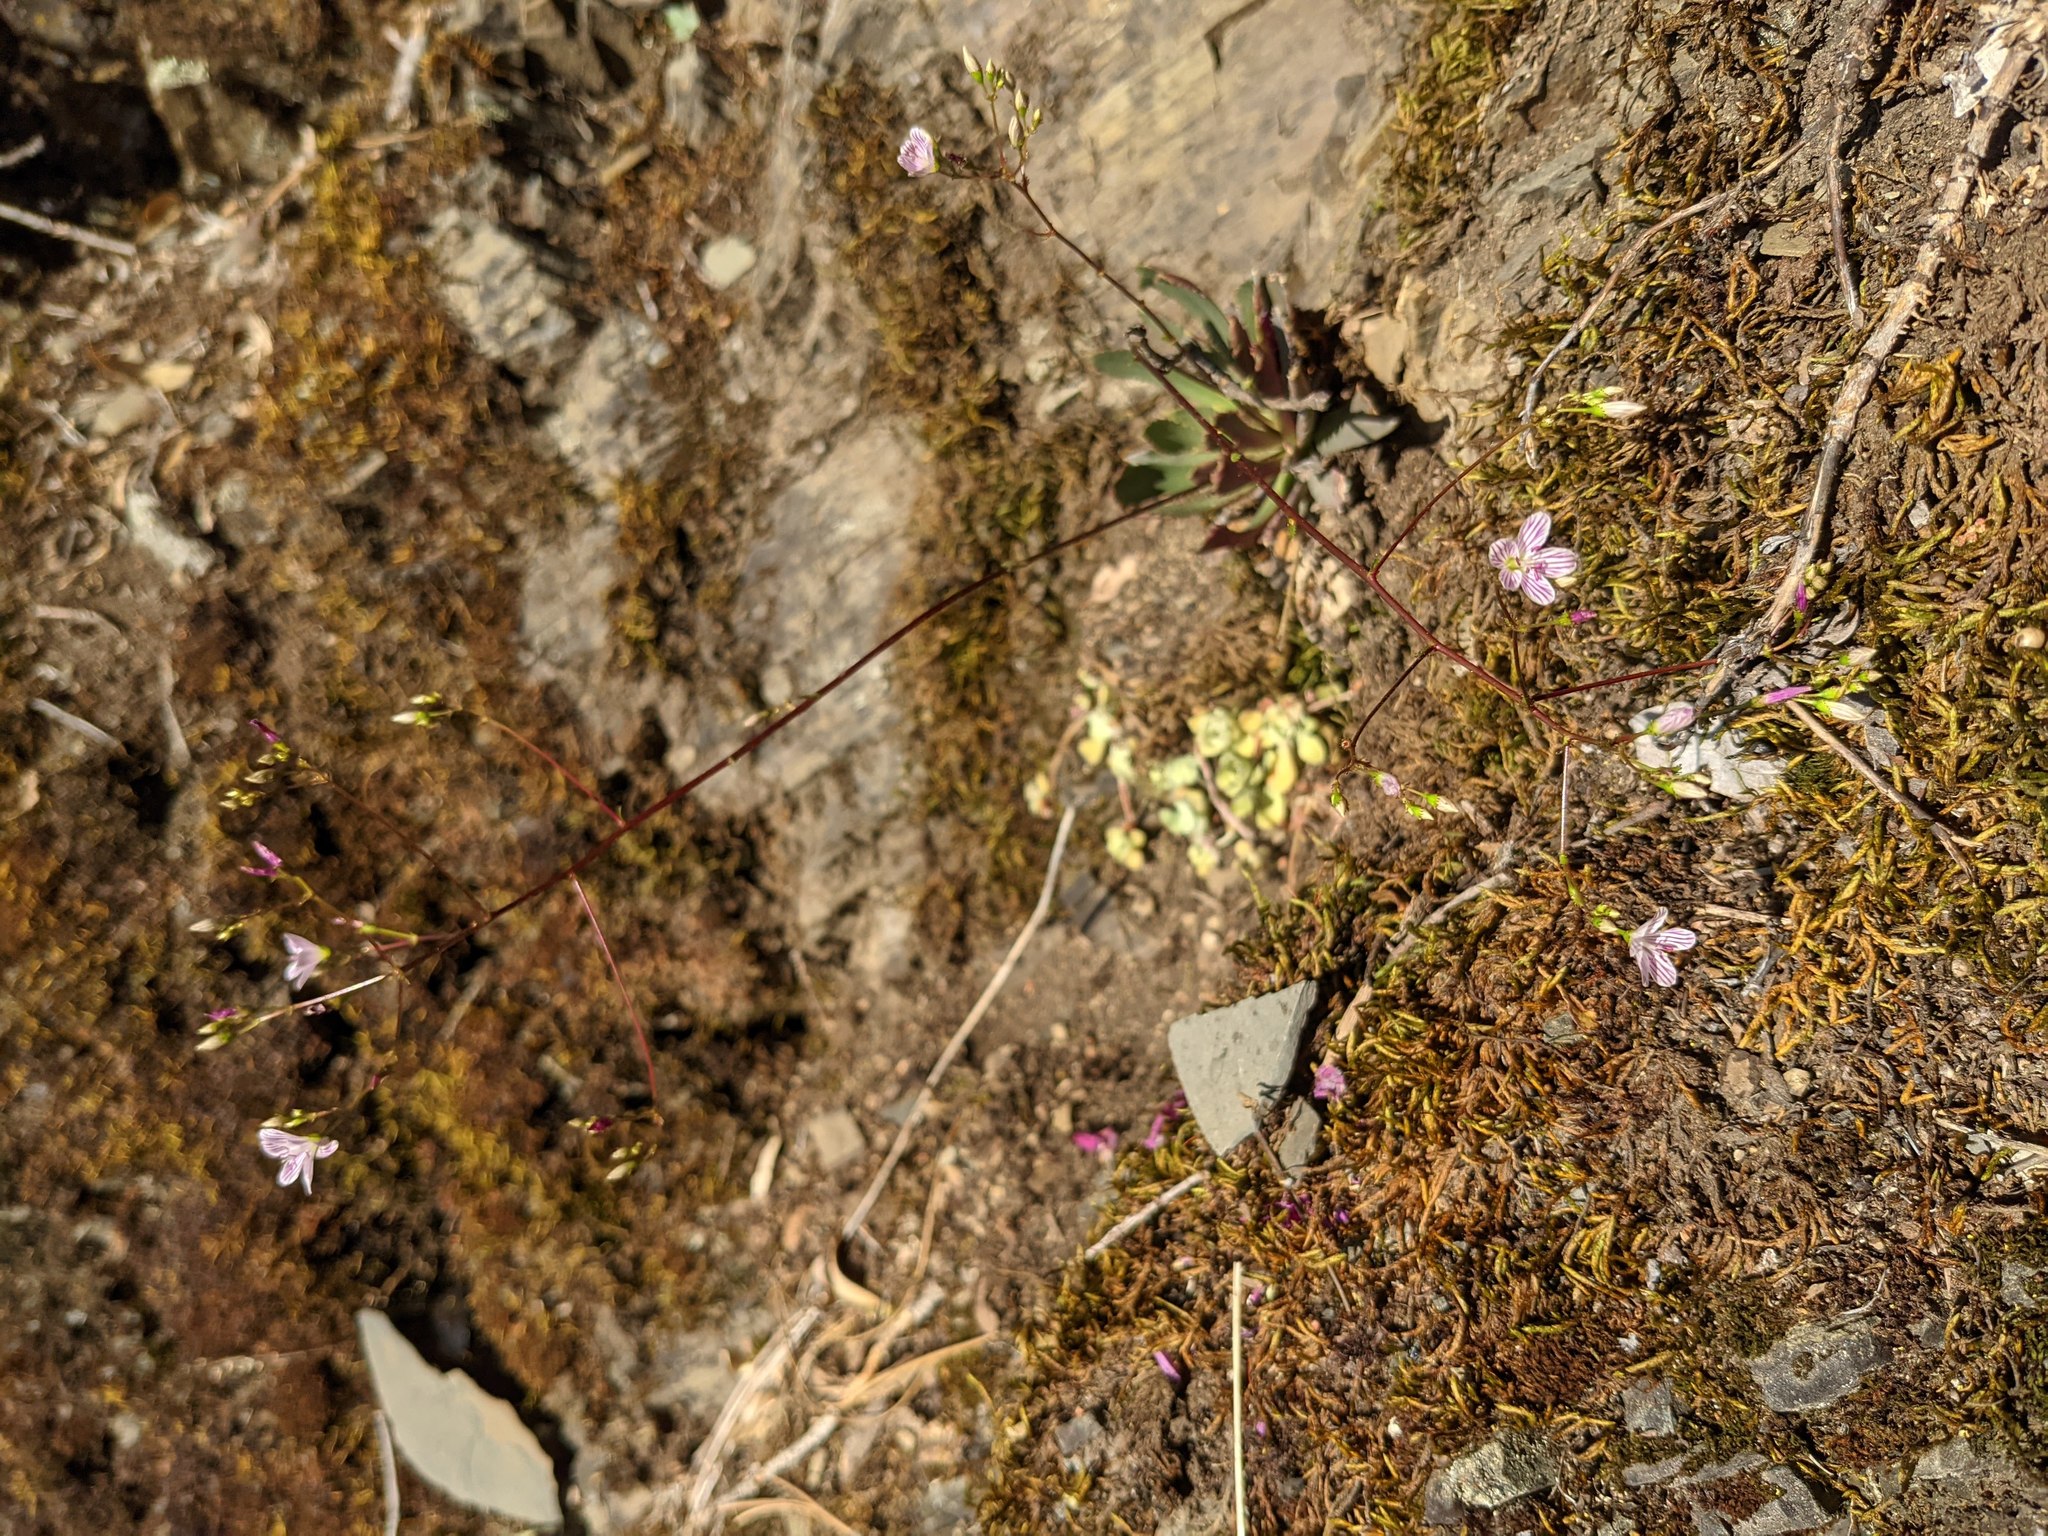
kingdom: Plantae
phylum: Tracheophyta
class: Magnoliopsida
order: Caryophyllales
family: Montiaceae
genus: Lewisia
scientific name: Lewisia cantelovii
